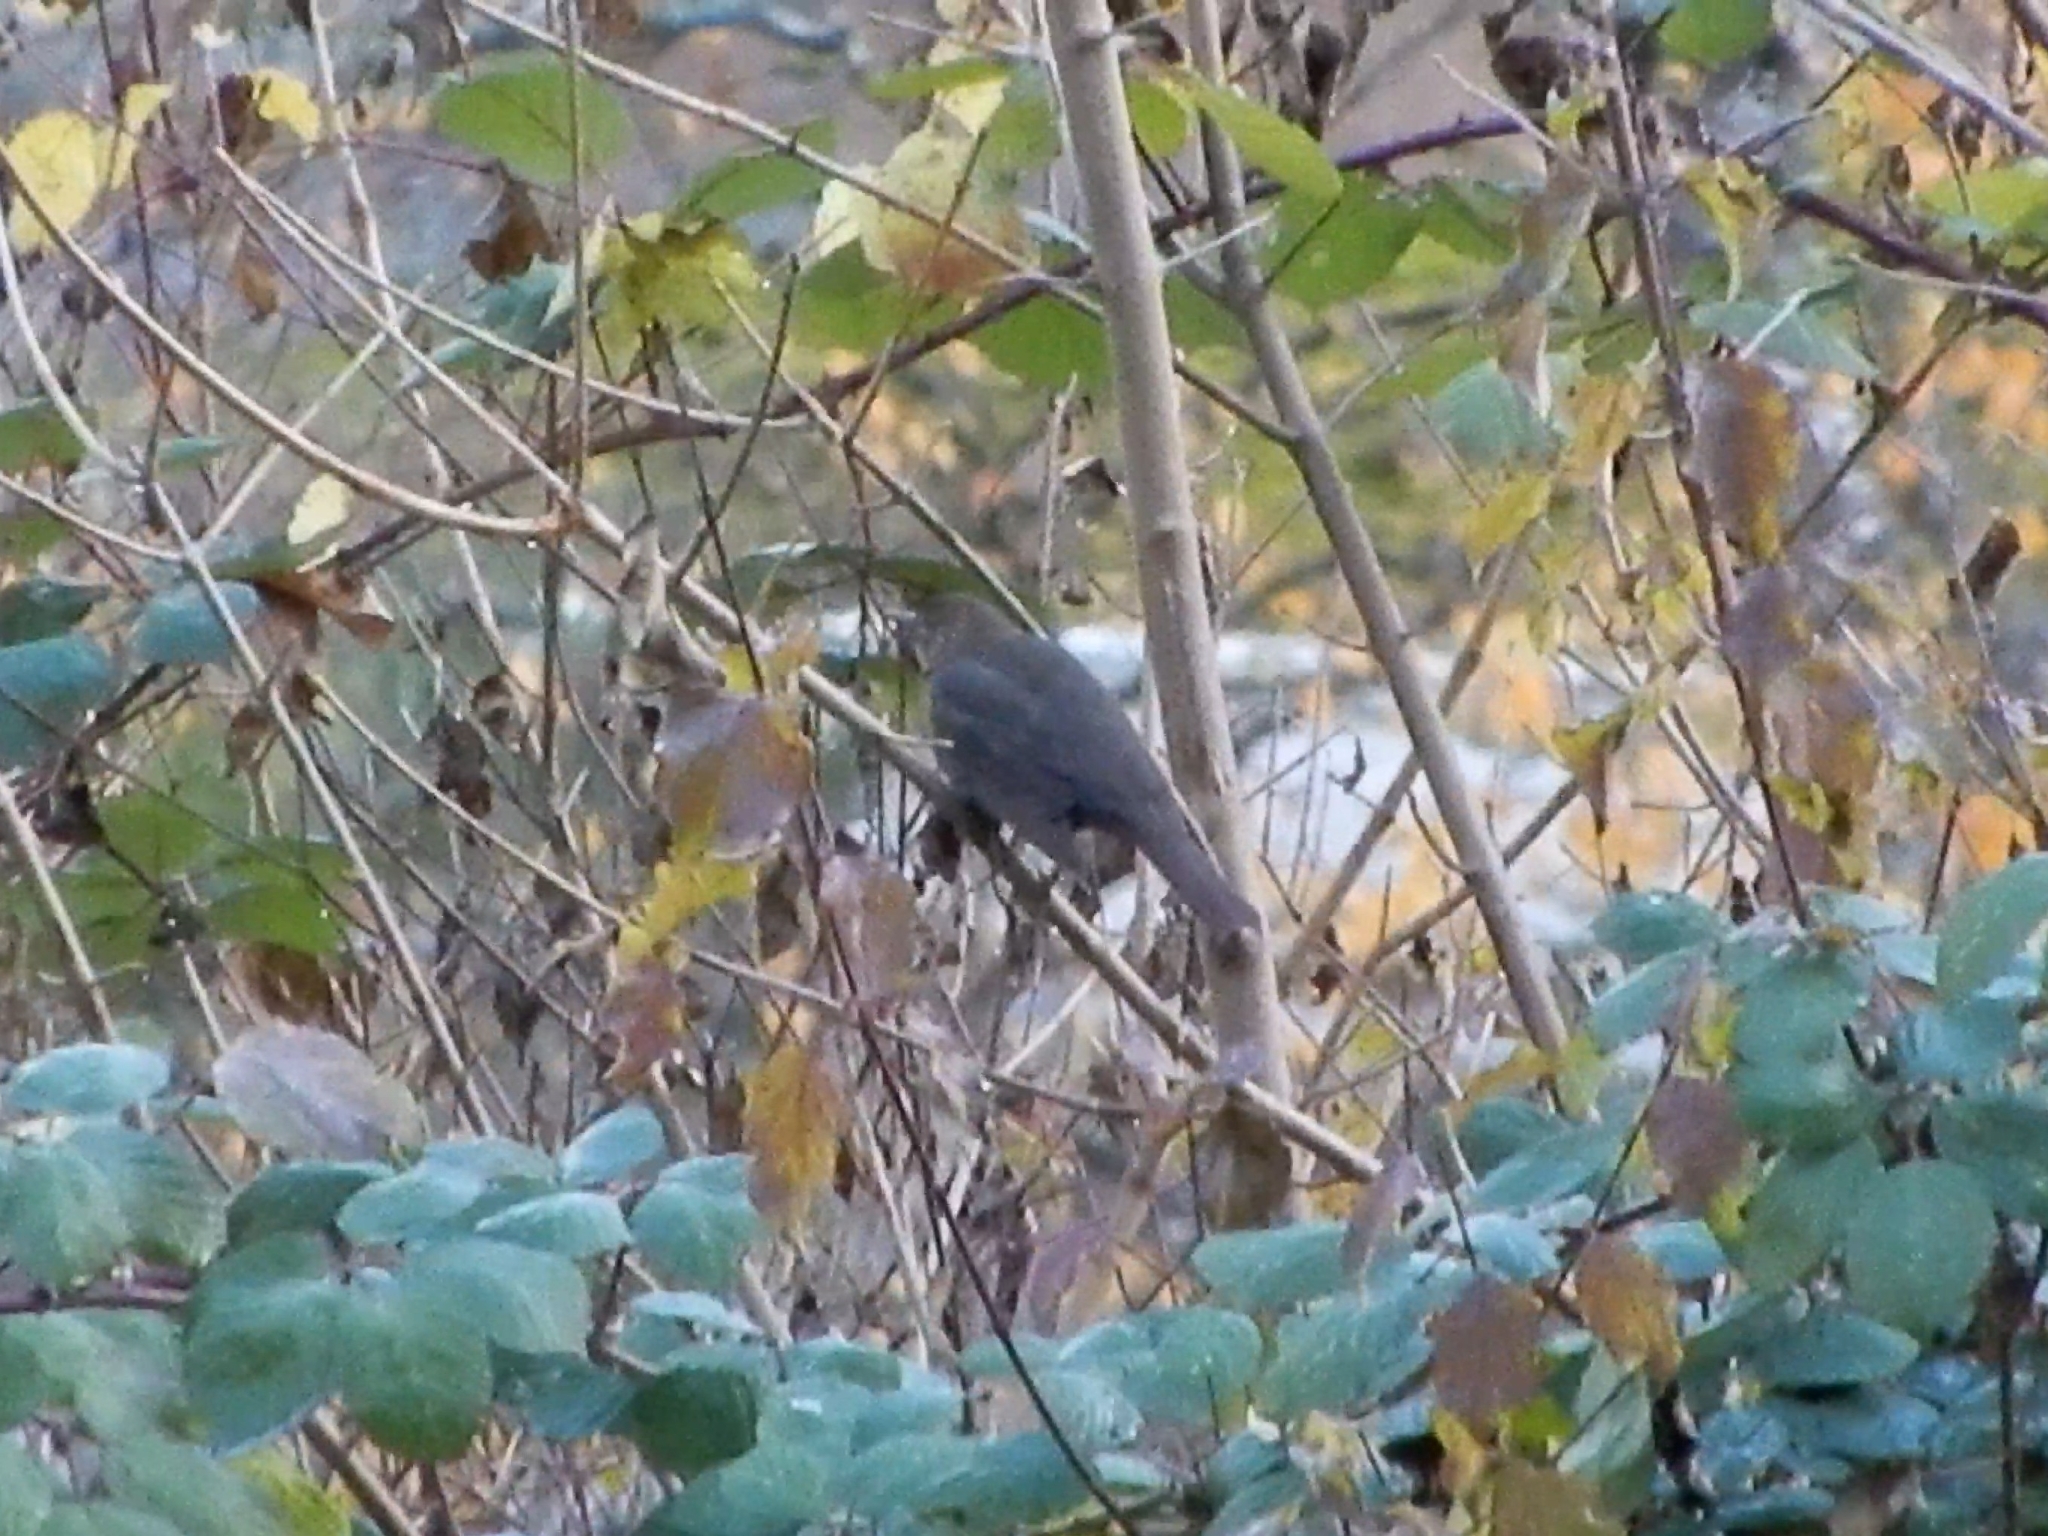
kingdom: Animalia
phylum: Chordata
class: Aves
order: Passeriformes
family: Turdidae
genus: Turdus
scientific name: Turdus merula
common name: Common blackbird
